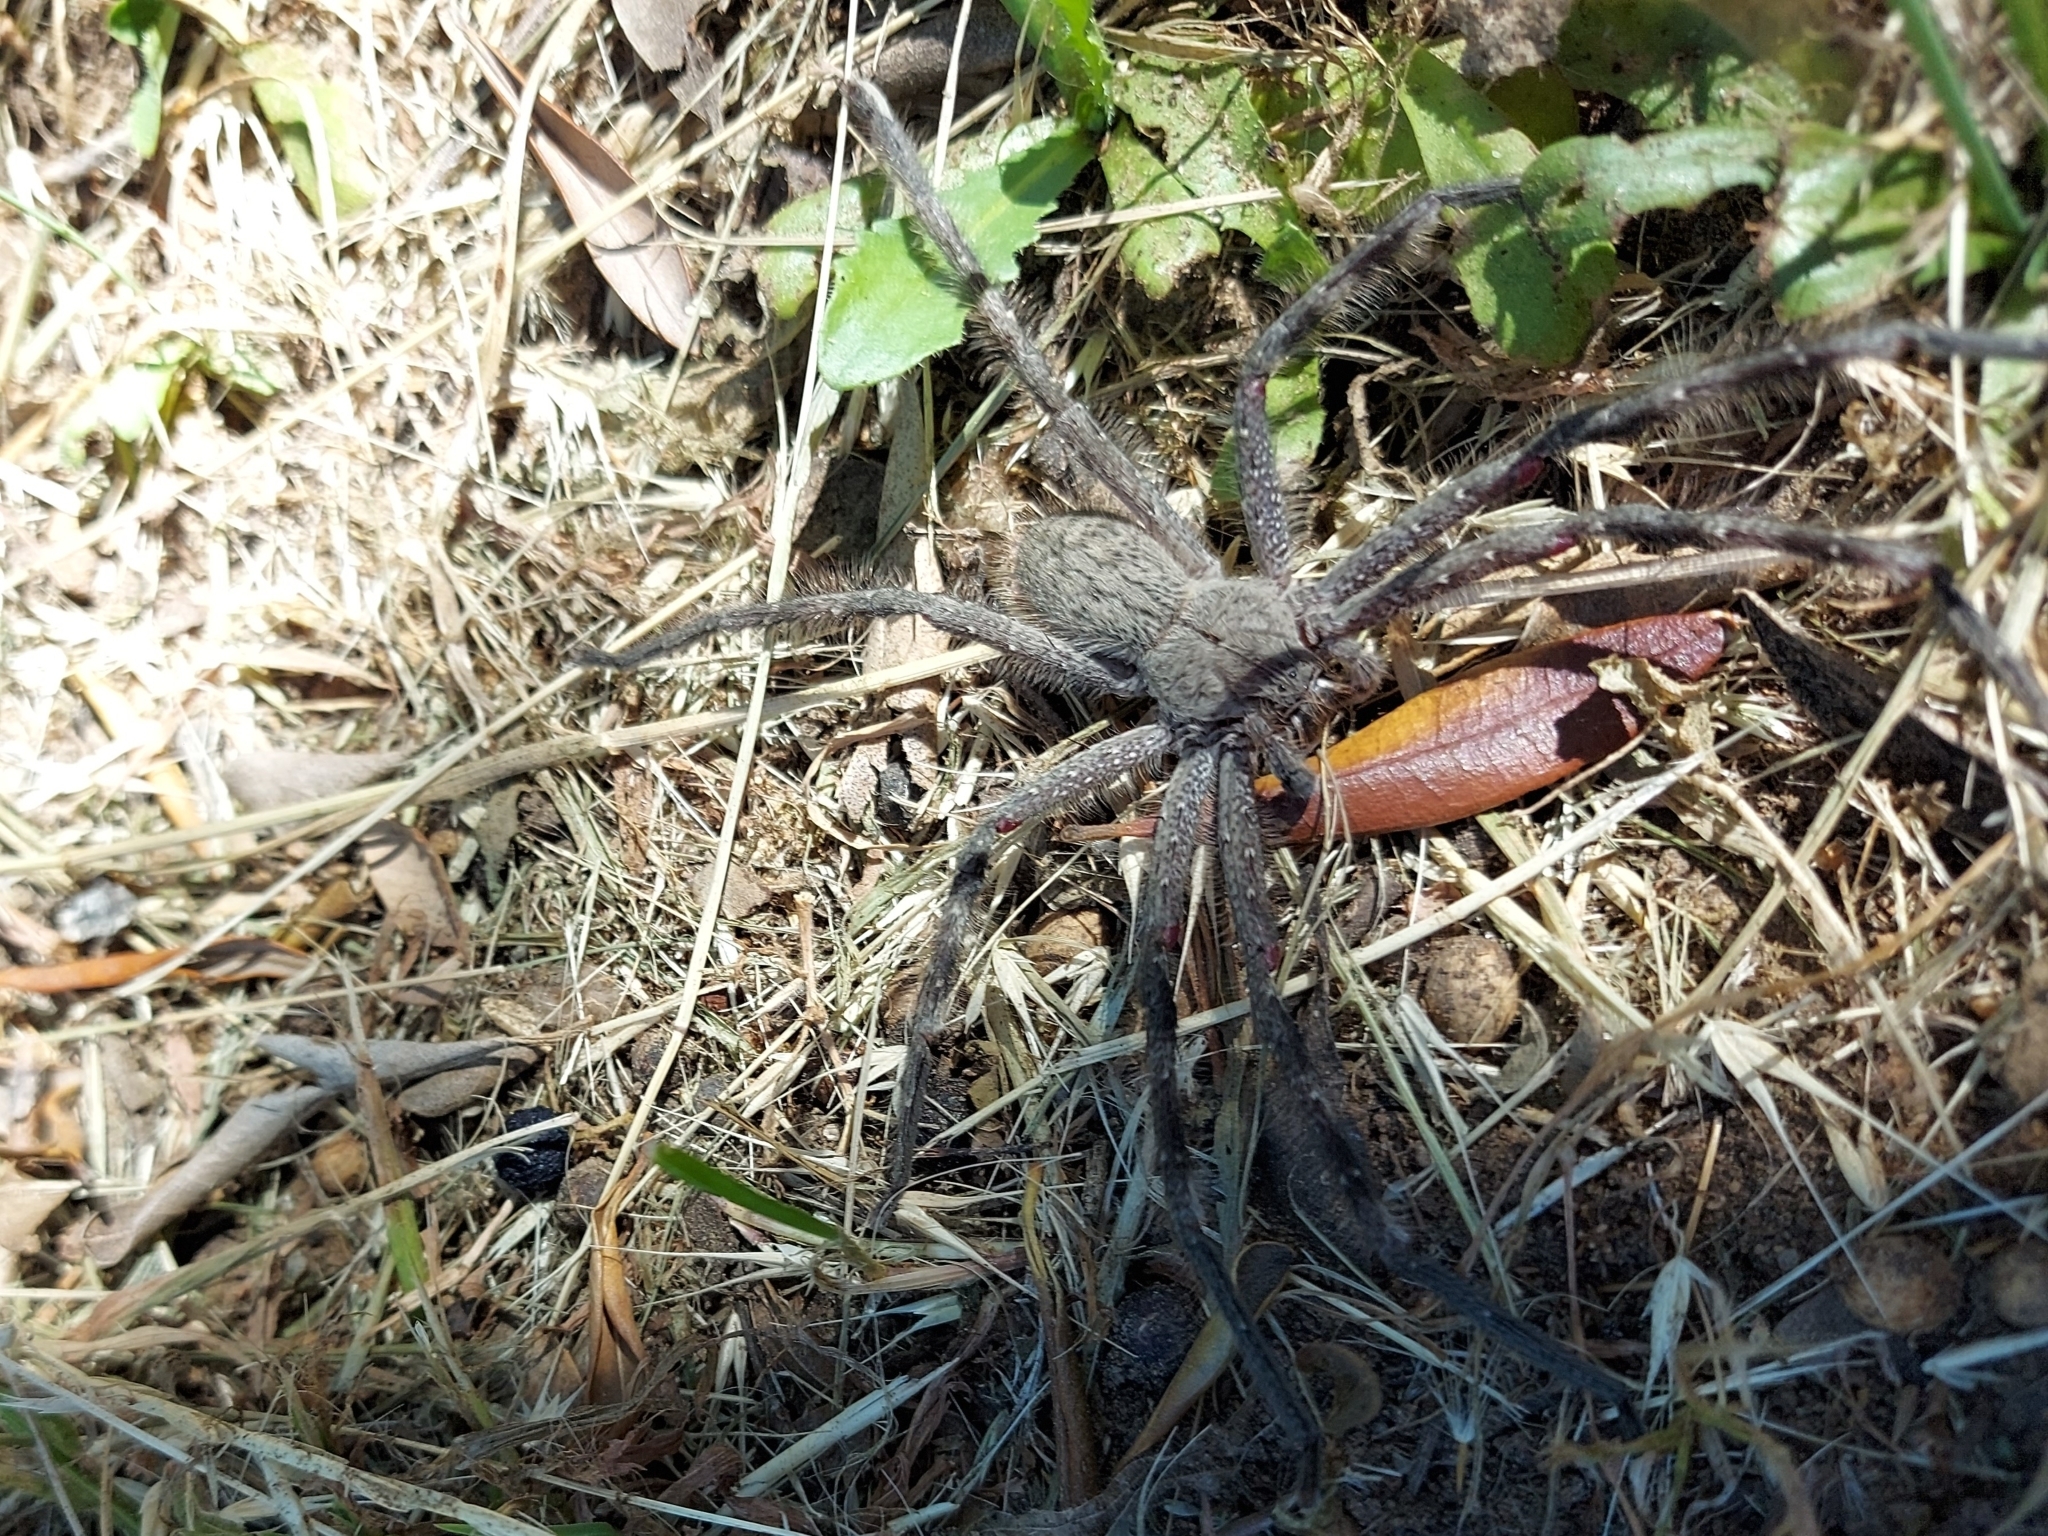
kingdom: Animalia
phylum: Arthropoda
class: Arachnida
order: Araneae
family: Sparassidae
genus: Palystes
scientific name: Palystes martinfilmeri
